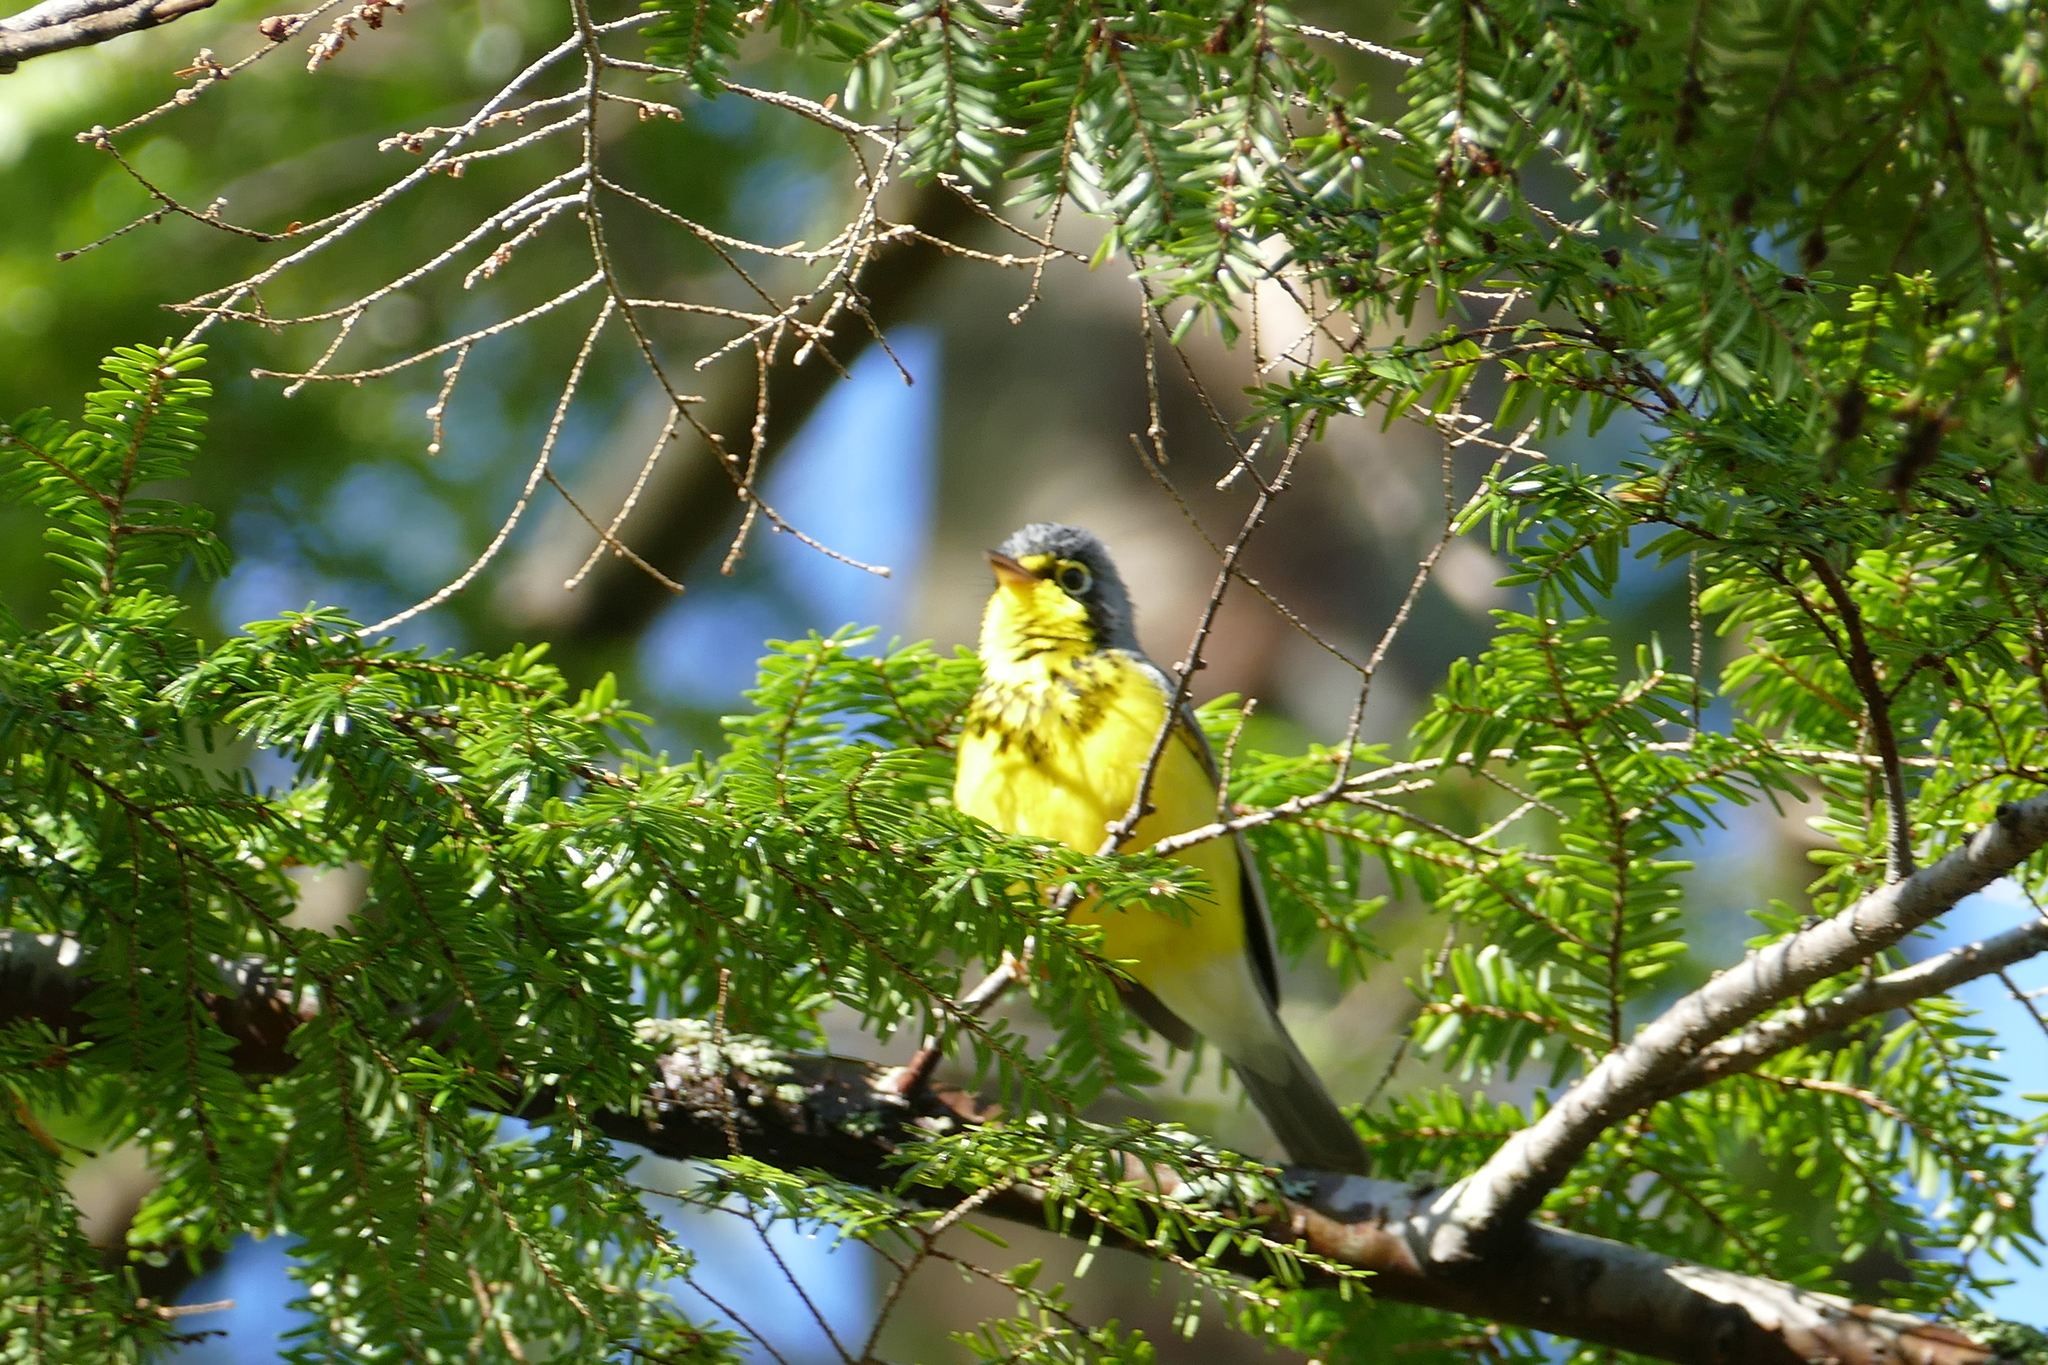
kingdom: Animalia
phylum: Chordata
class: Aves
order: Passeriformes
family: Parulidae
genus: Cardellina
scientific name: Cardellina canadensis
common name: Canada warbler
